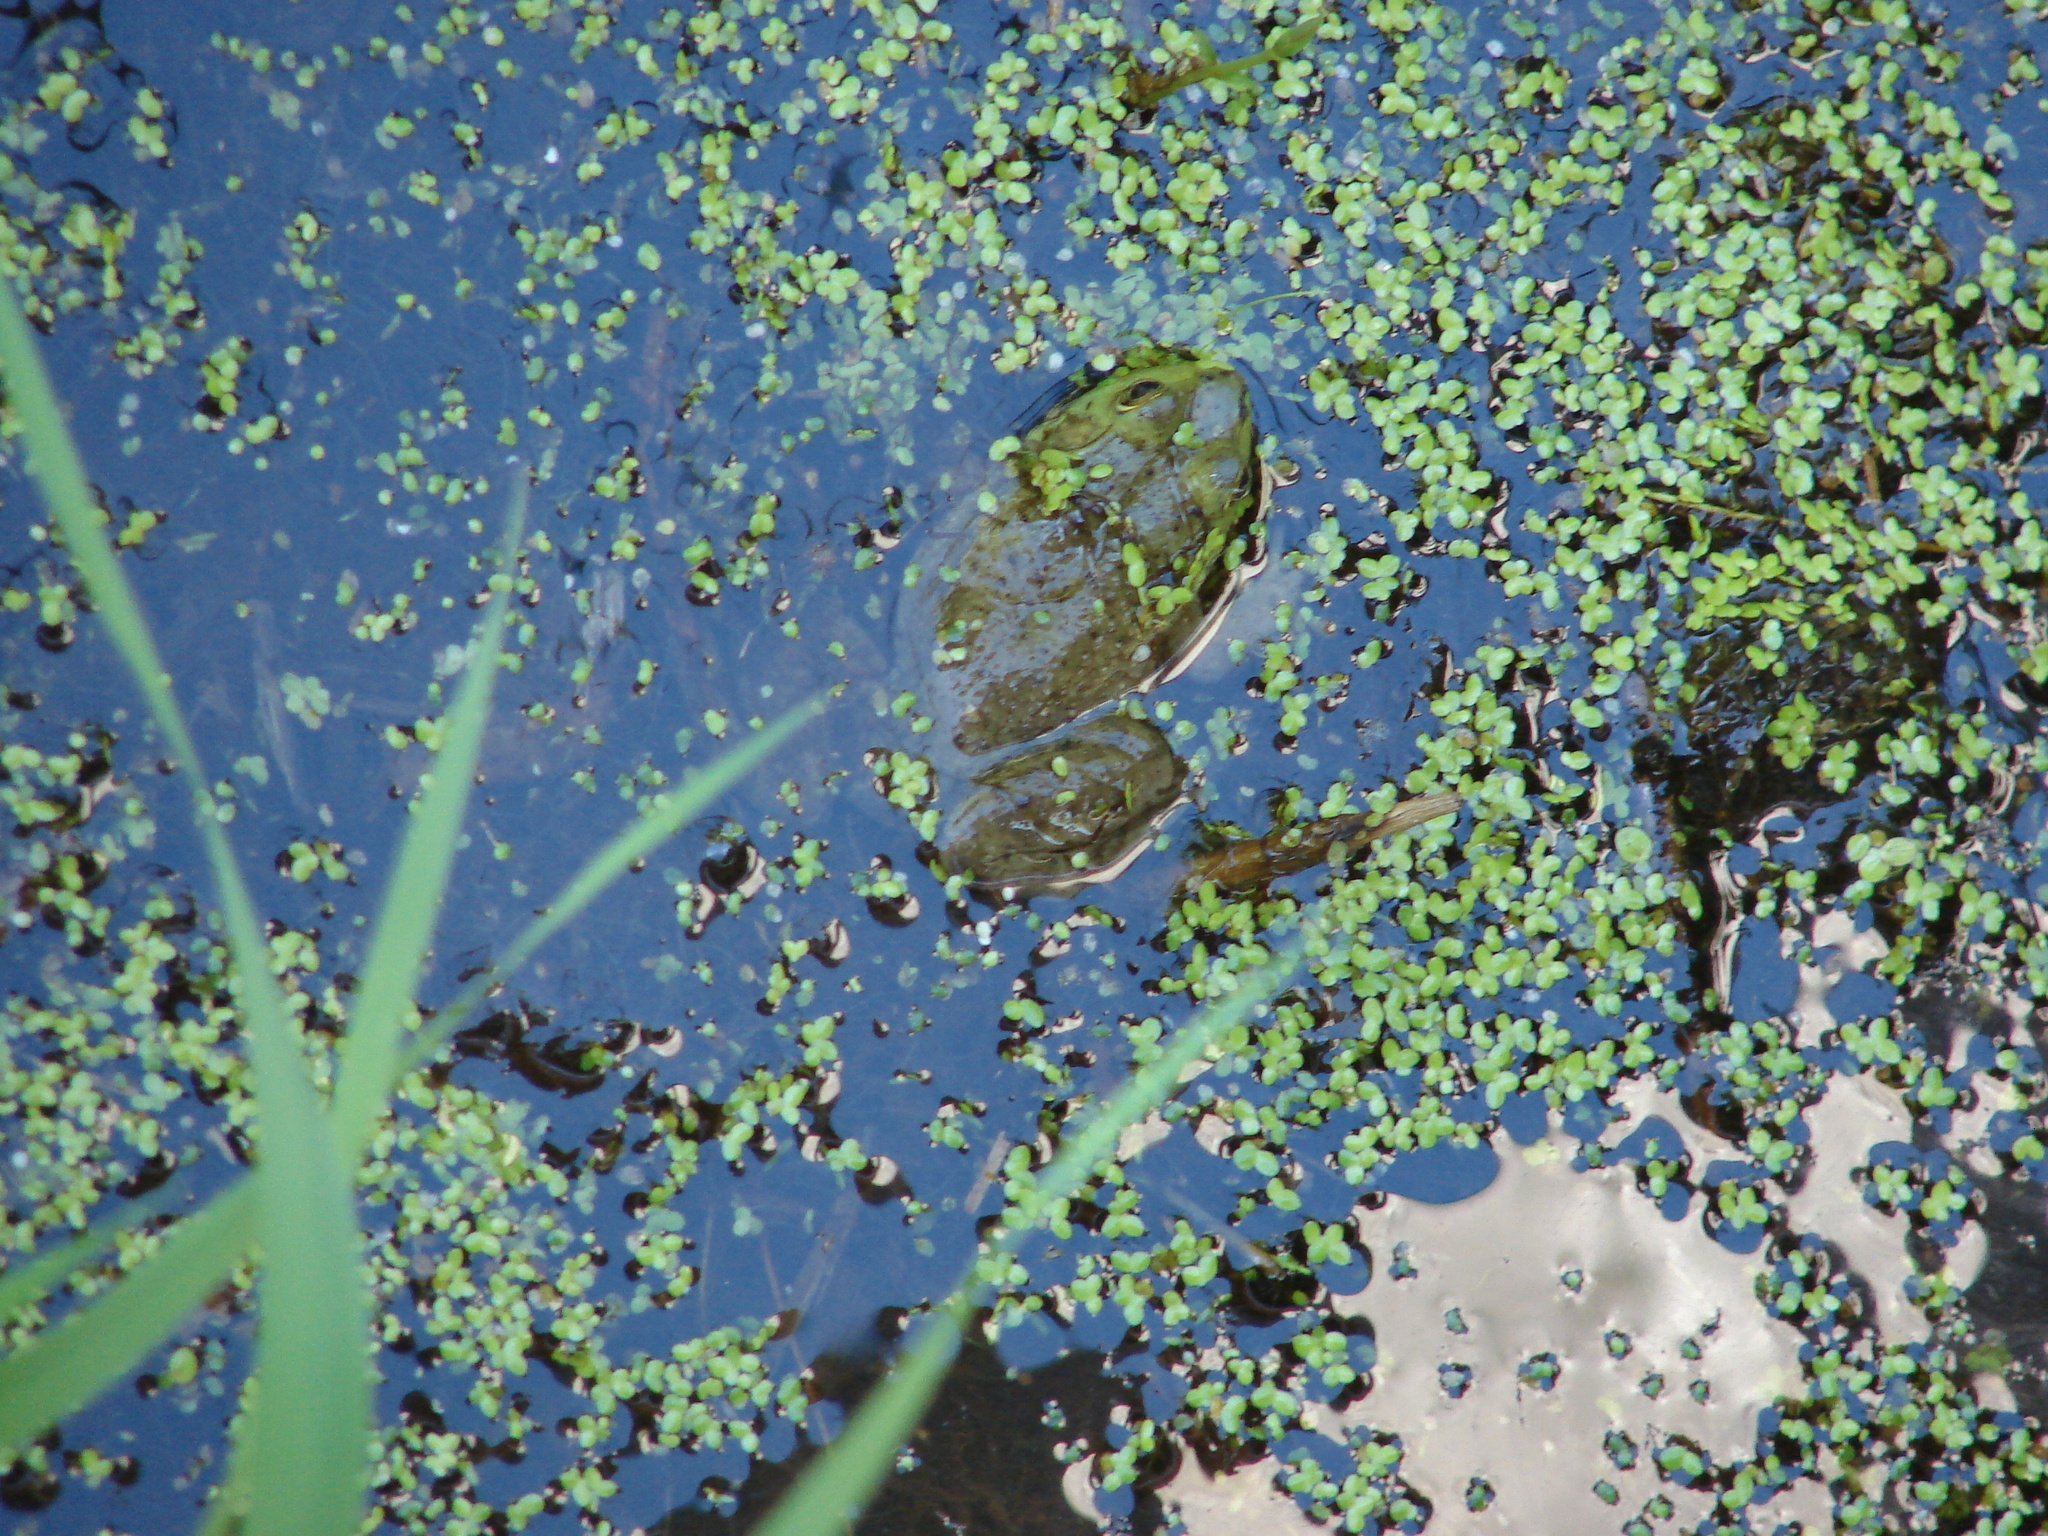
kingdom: Animalia
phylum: Chordata
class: Amphibia
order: Anura
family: Ranidae
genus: Lithobates
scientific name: Lithobates catesbeianus
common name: American bullfrog
